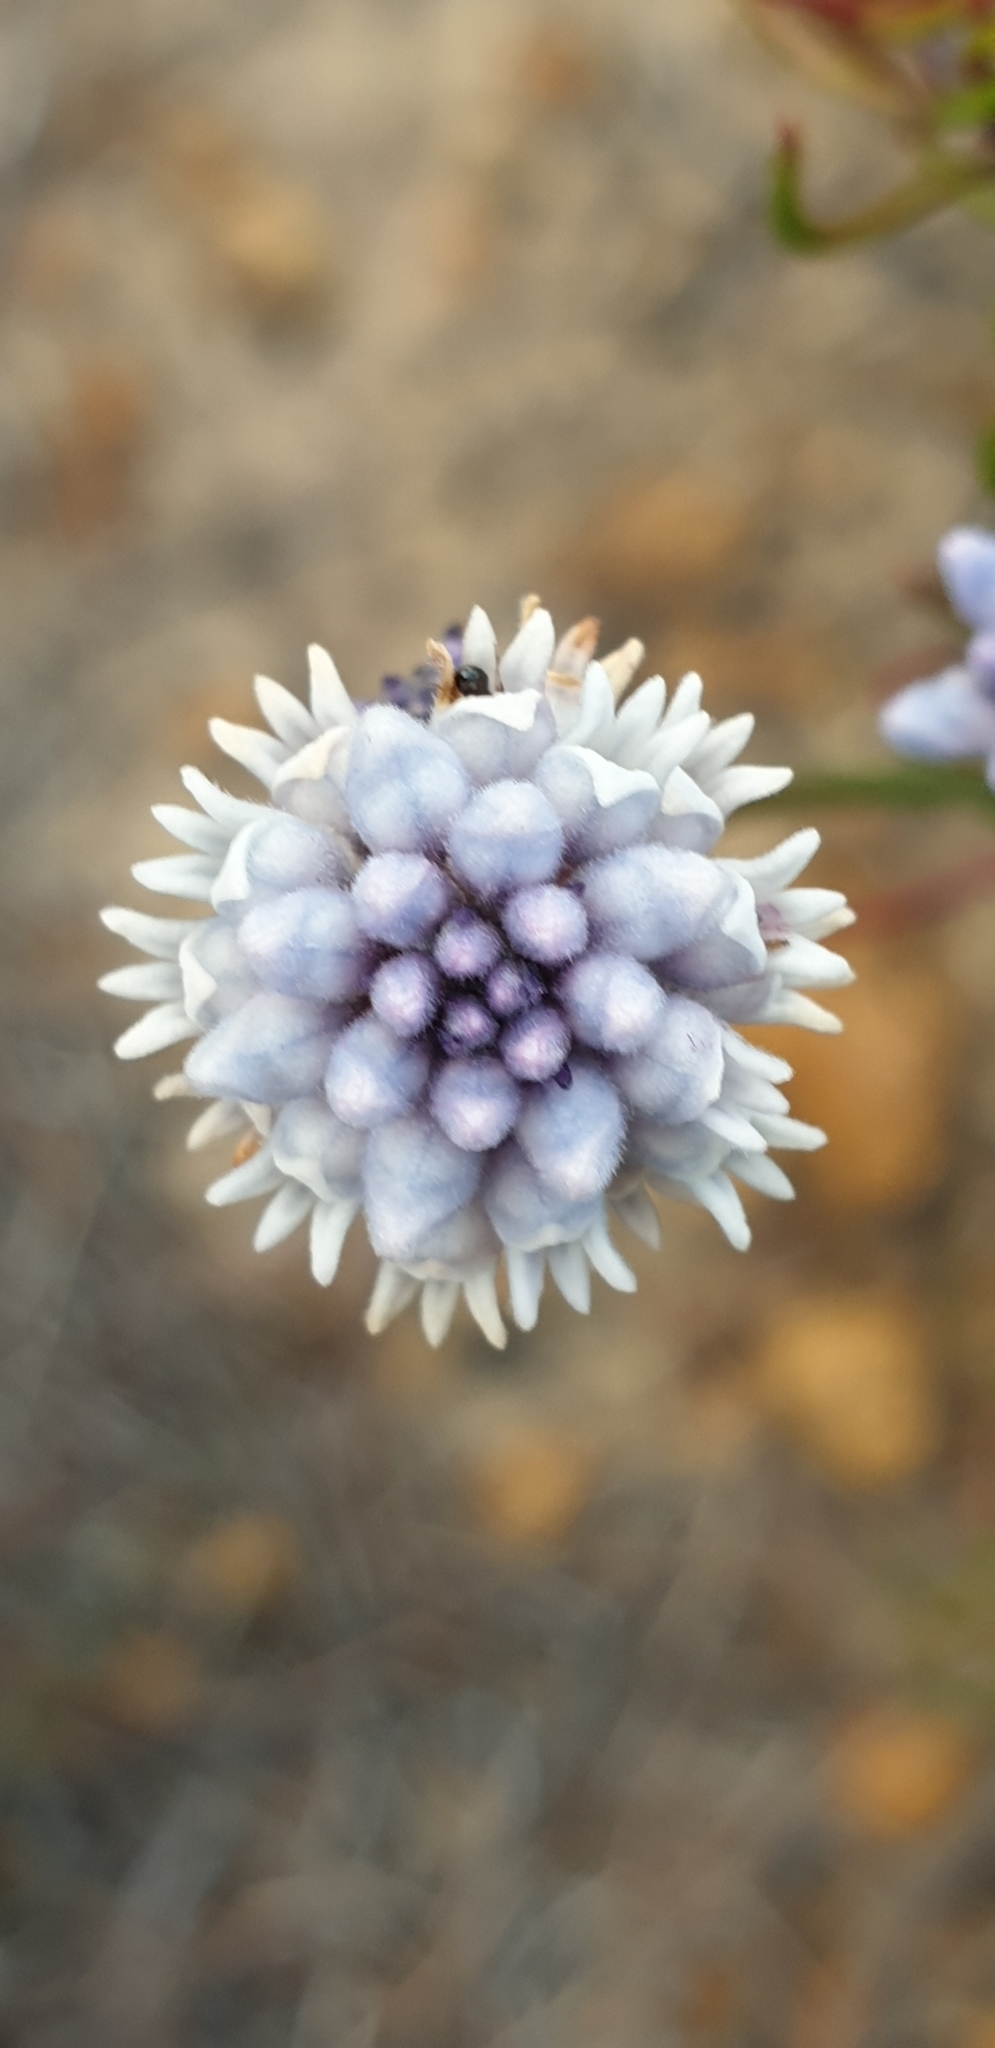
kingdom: Plantae
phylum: Tracheophyta
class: Magnoliopsida
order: Proteales
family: Proteaceae
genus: Conospermum
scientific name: Conospermum patens
